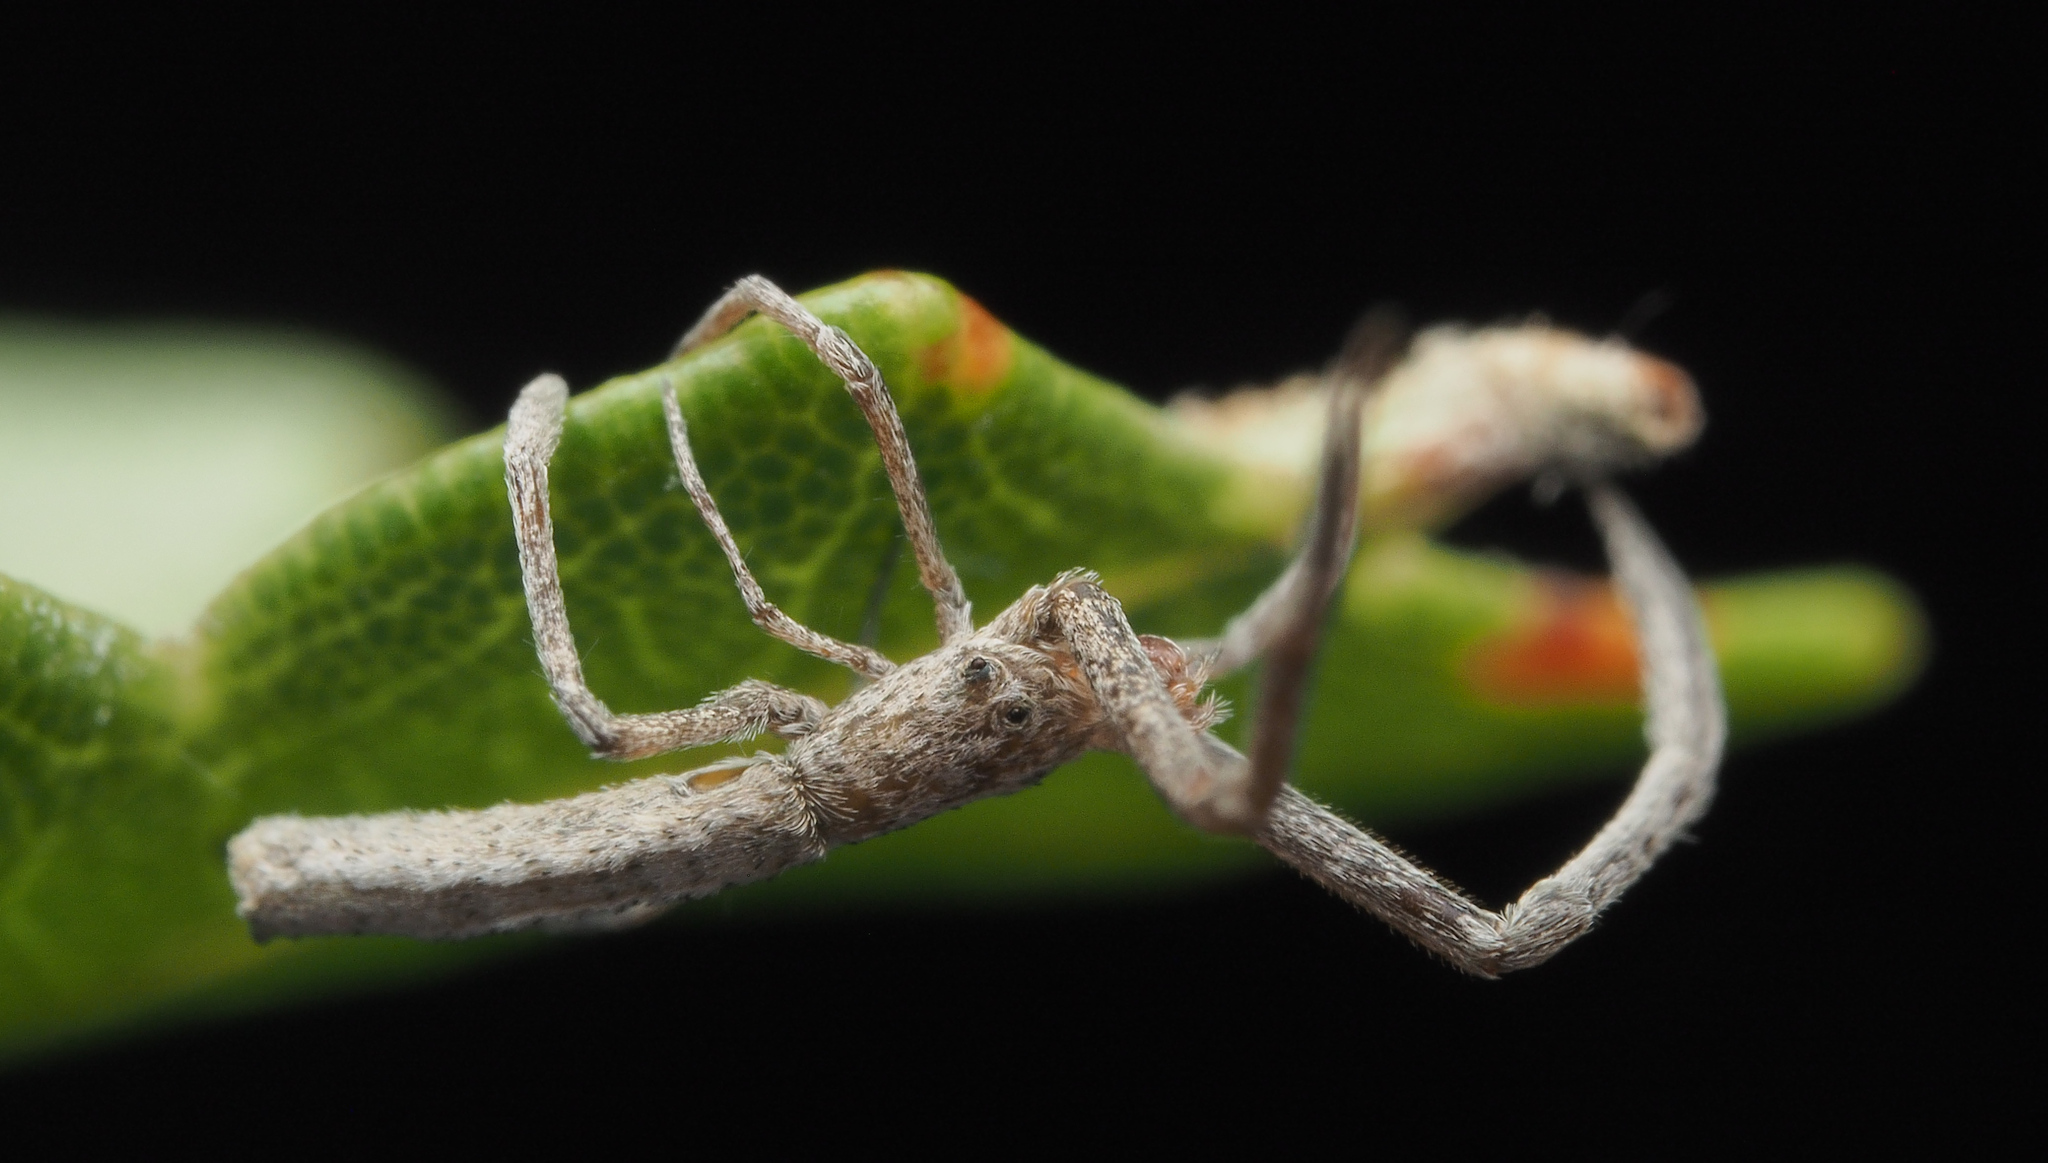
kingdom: Animalia
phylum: Arthropoda
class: Arachnida
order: Araneae
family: Uloboridae
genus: Miagrammopes
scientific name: Miagrammopes bradleyi
